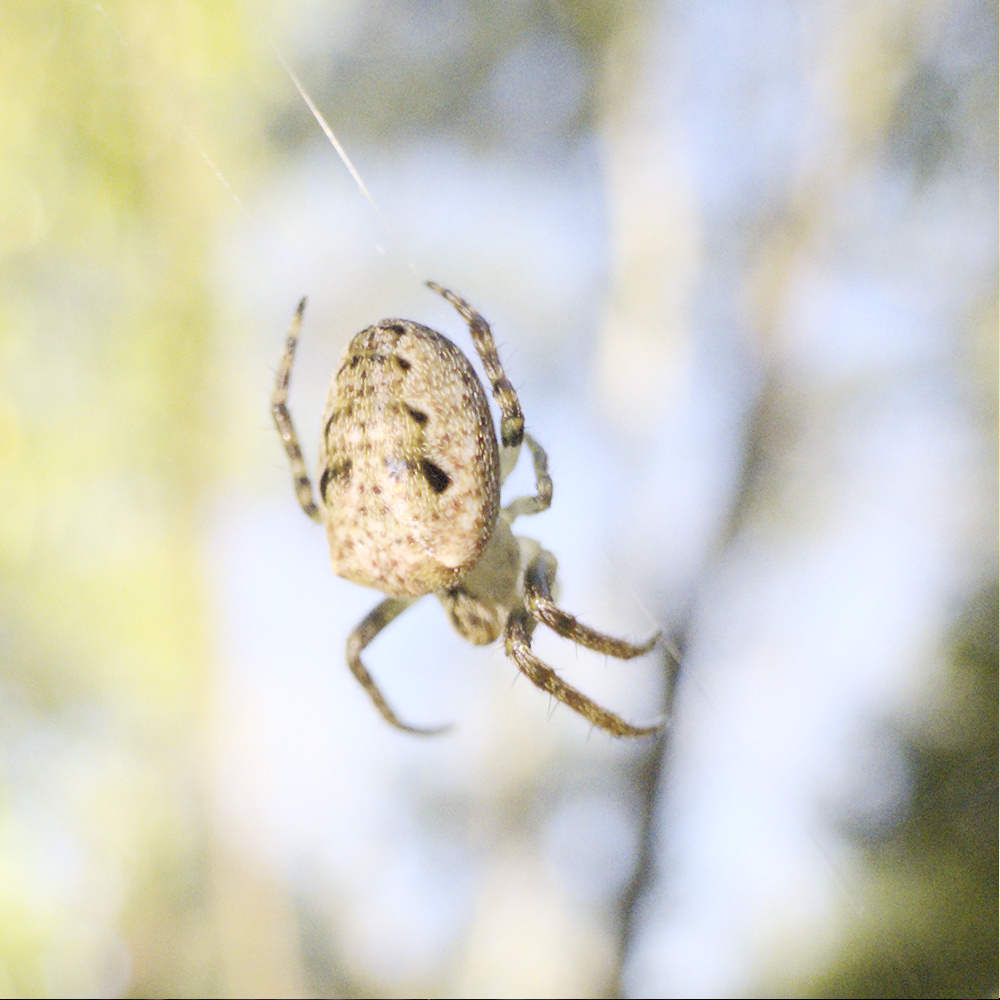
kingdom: Animalia
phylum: Arthropoda
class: Arachnida
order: Araneae
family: Araneidae
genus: Plebs
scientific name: Plebs eburnus
